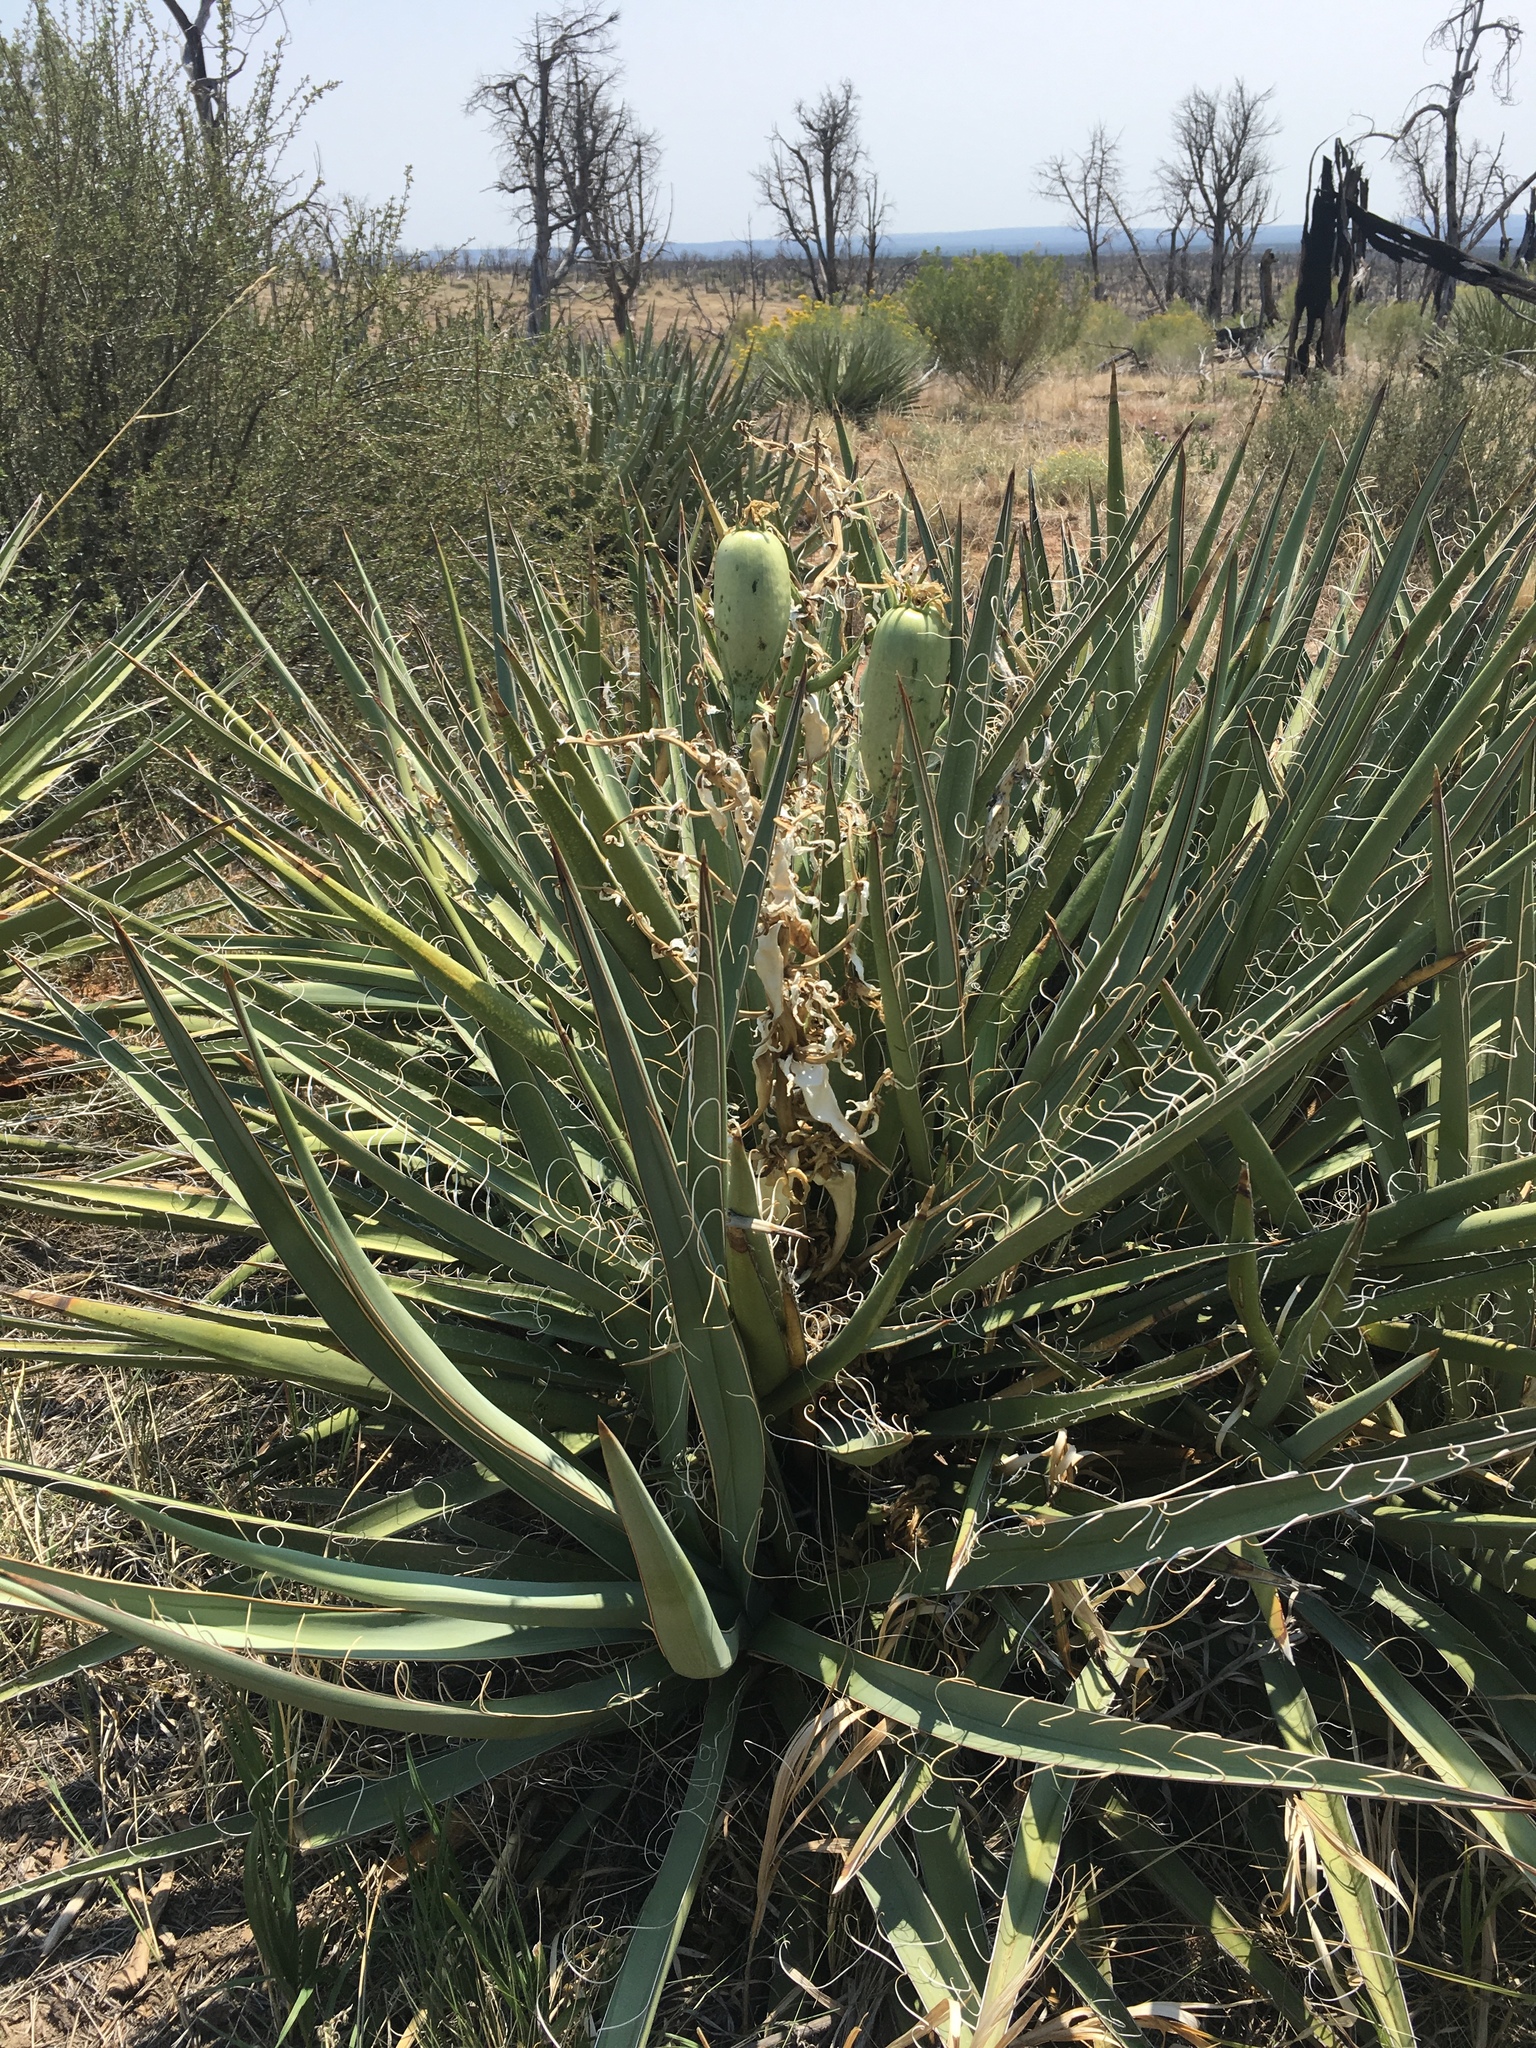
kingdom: Plantae
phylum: Tracheophyta
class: Liliopsida
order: Asparagales
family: Asparagaceae
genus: Yucca
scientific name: Yucca baccata
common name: Banana yucca
